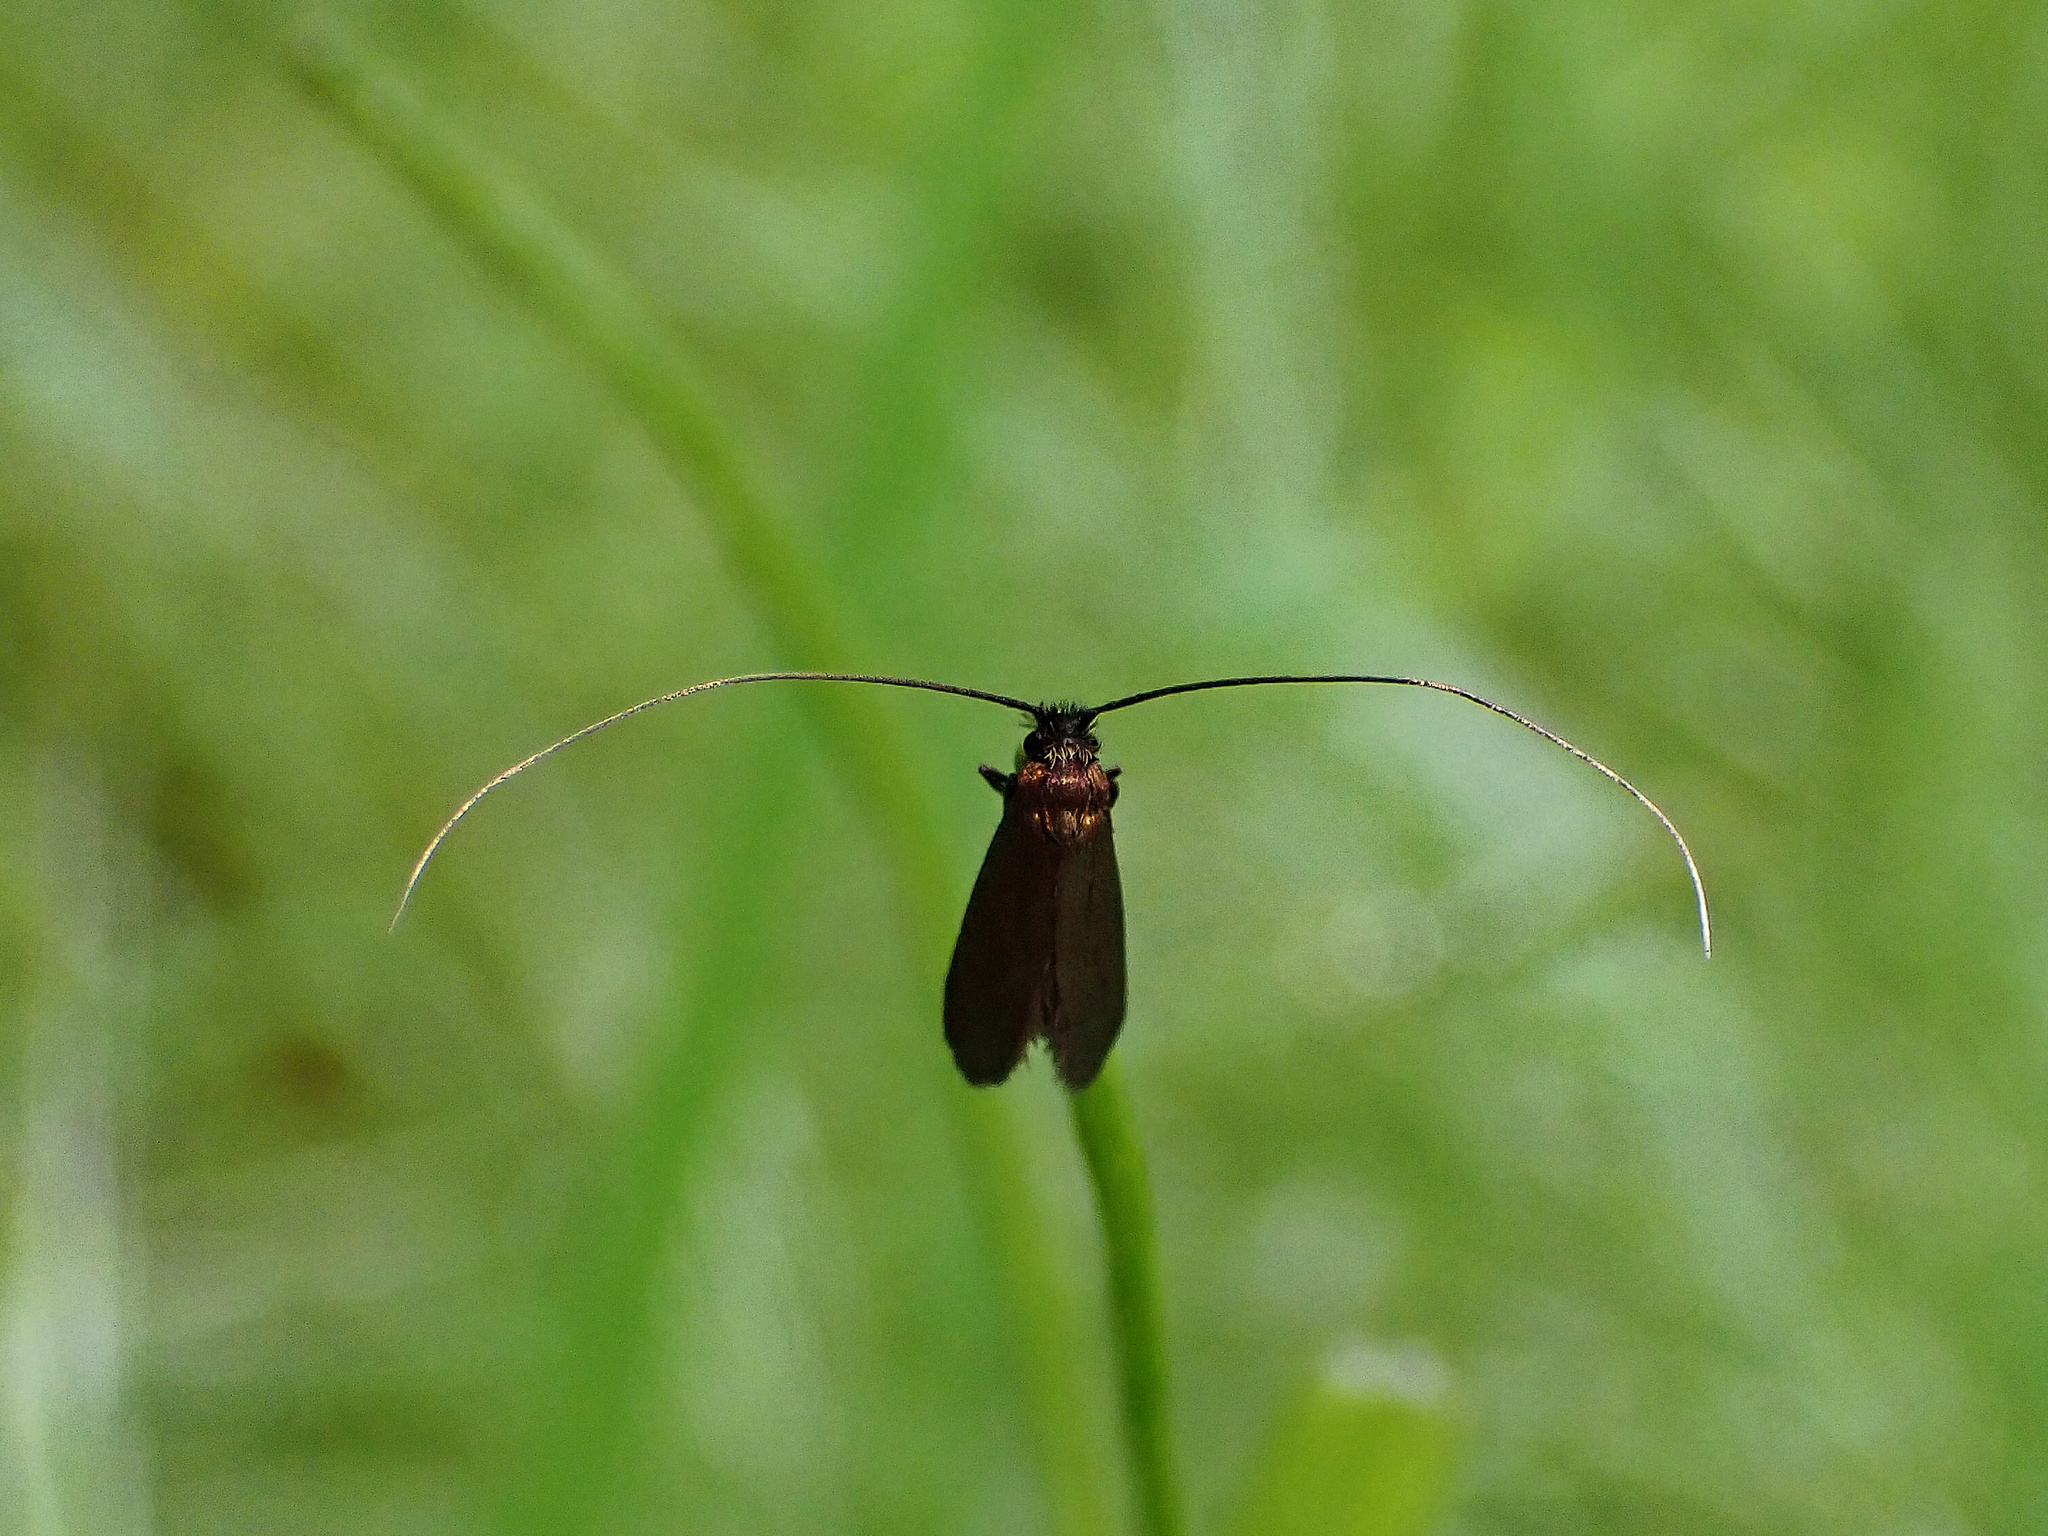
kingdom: Animalia
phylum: Arthropoda
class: Insecta
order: Lepidoptera
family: Adelidae
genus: Cauchas
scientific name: Cauchas rufimitrella
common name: Meadow long-horn
